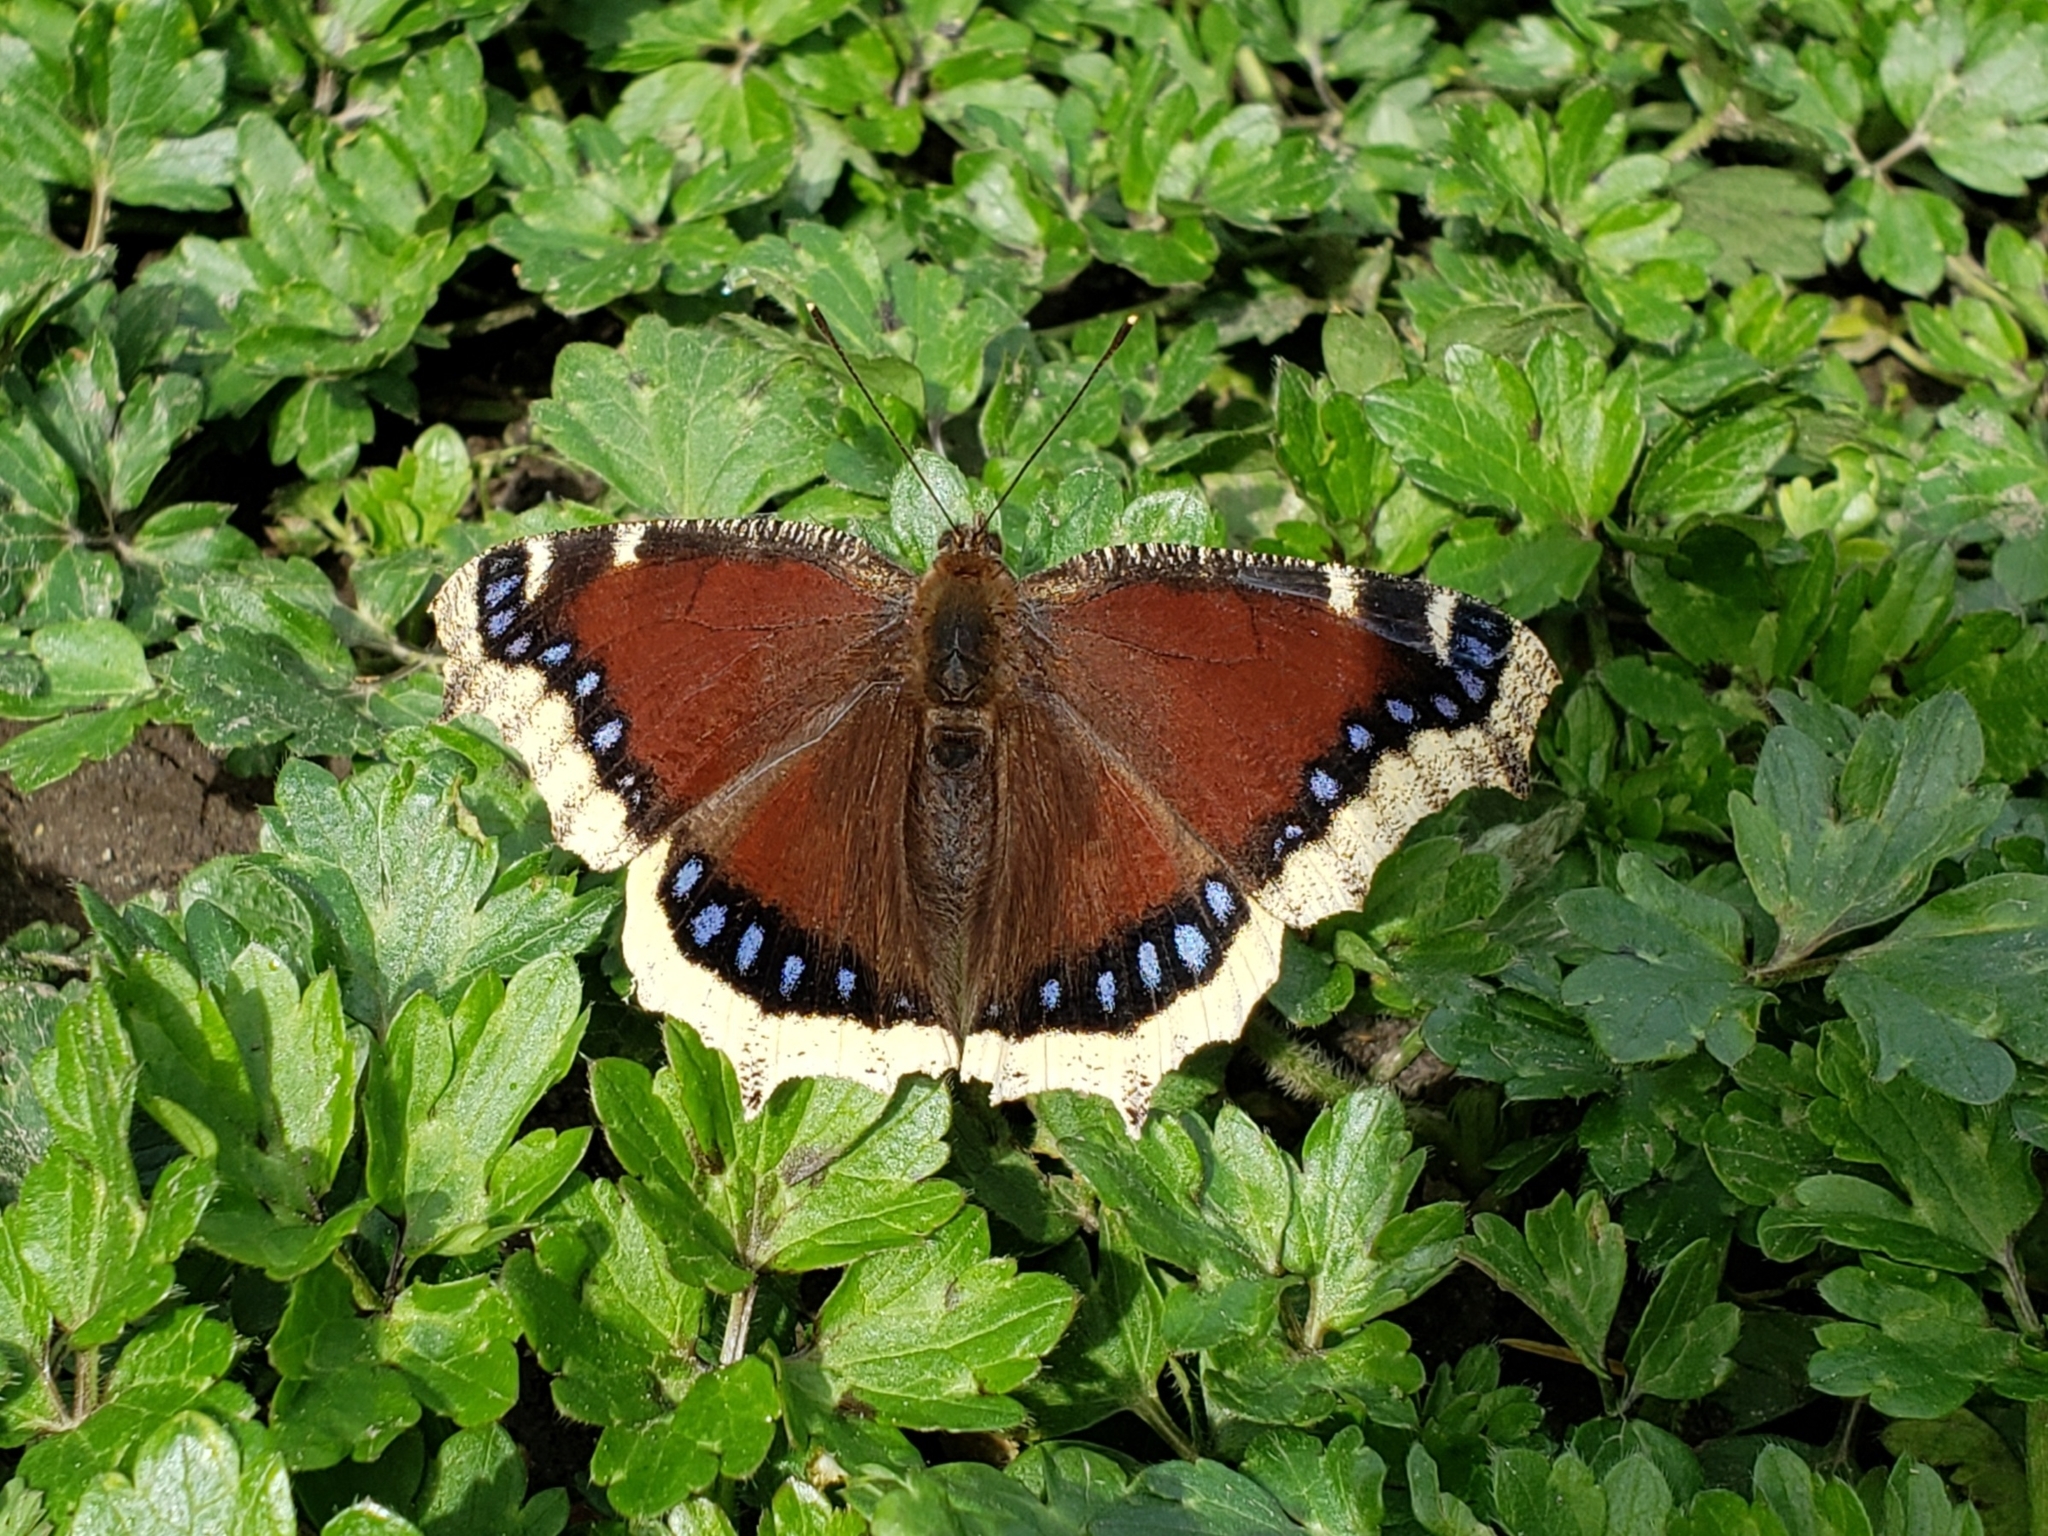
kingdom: Animalia
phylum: Arthropoda
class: Insecta
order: Lepidoptera
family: Nymphalidae
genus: Nymphalis
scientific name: Nymphalis antiopa
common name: Camberwell beauty
